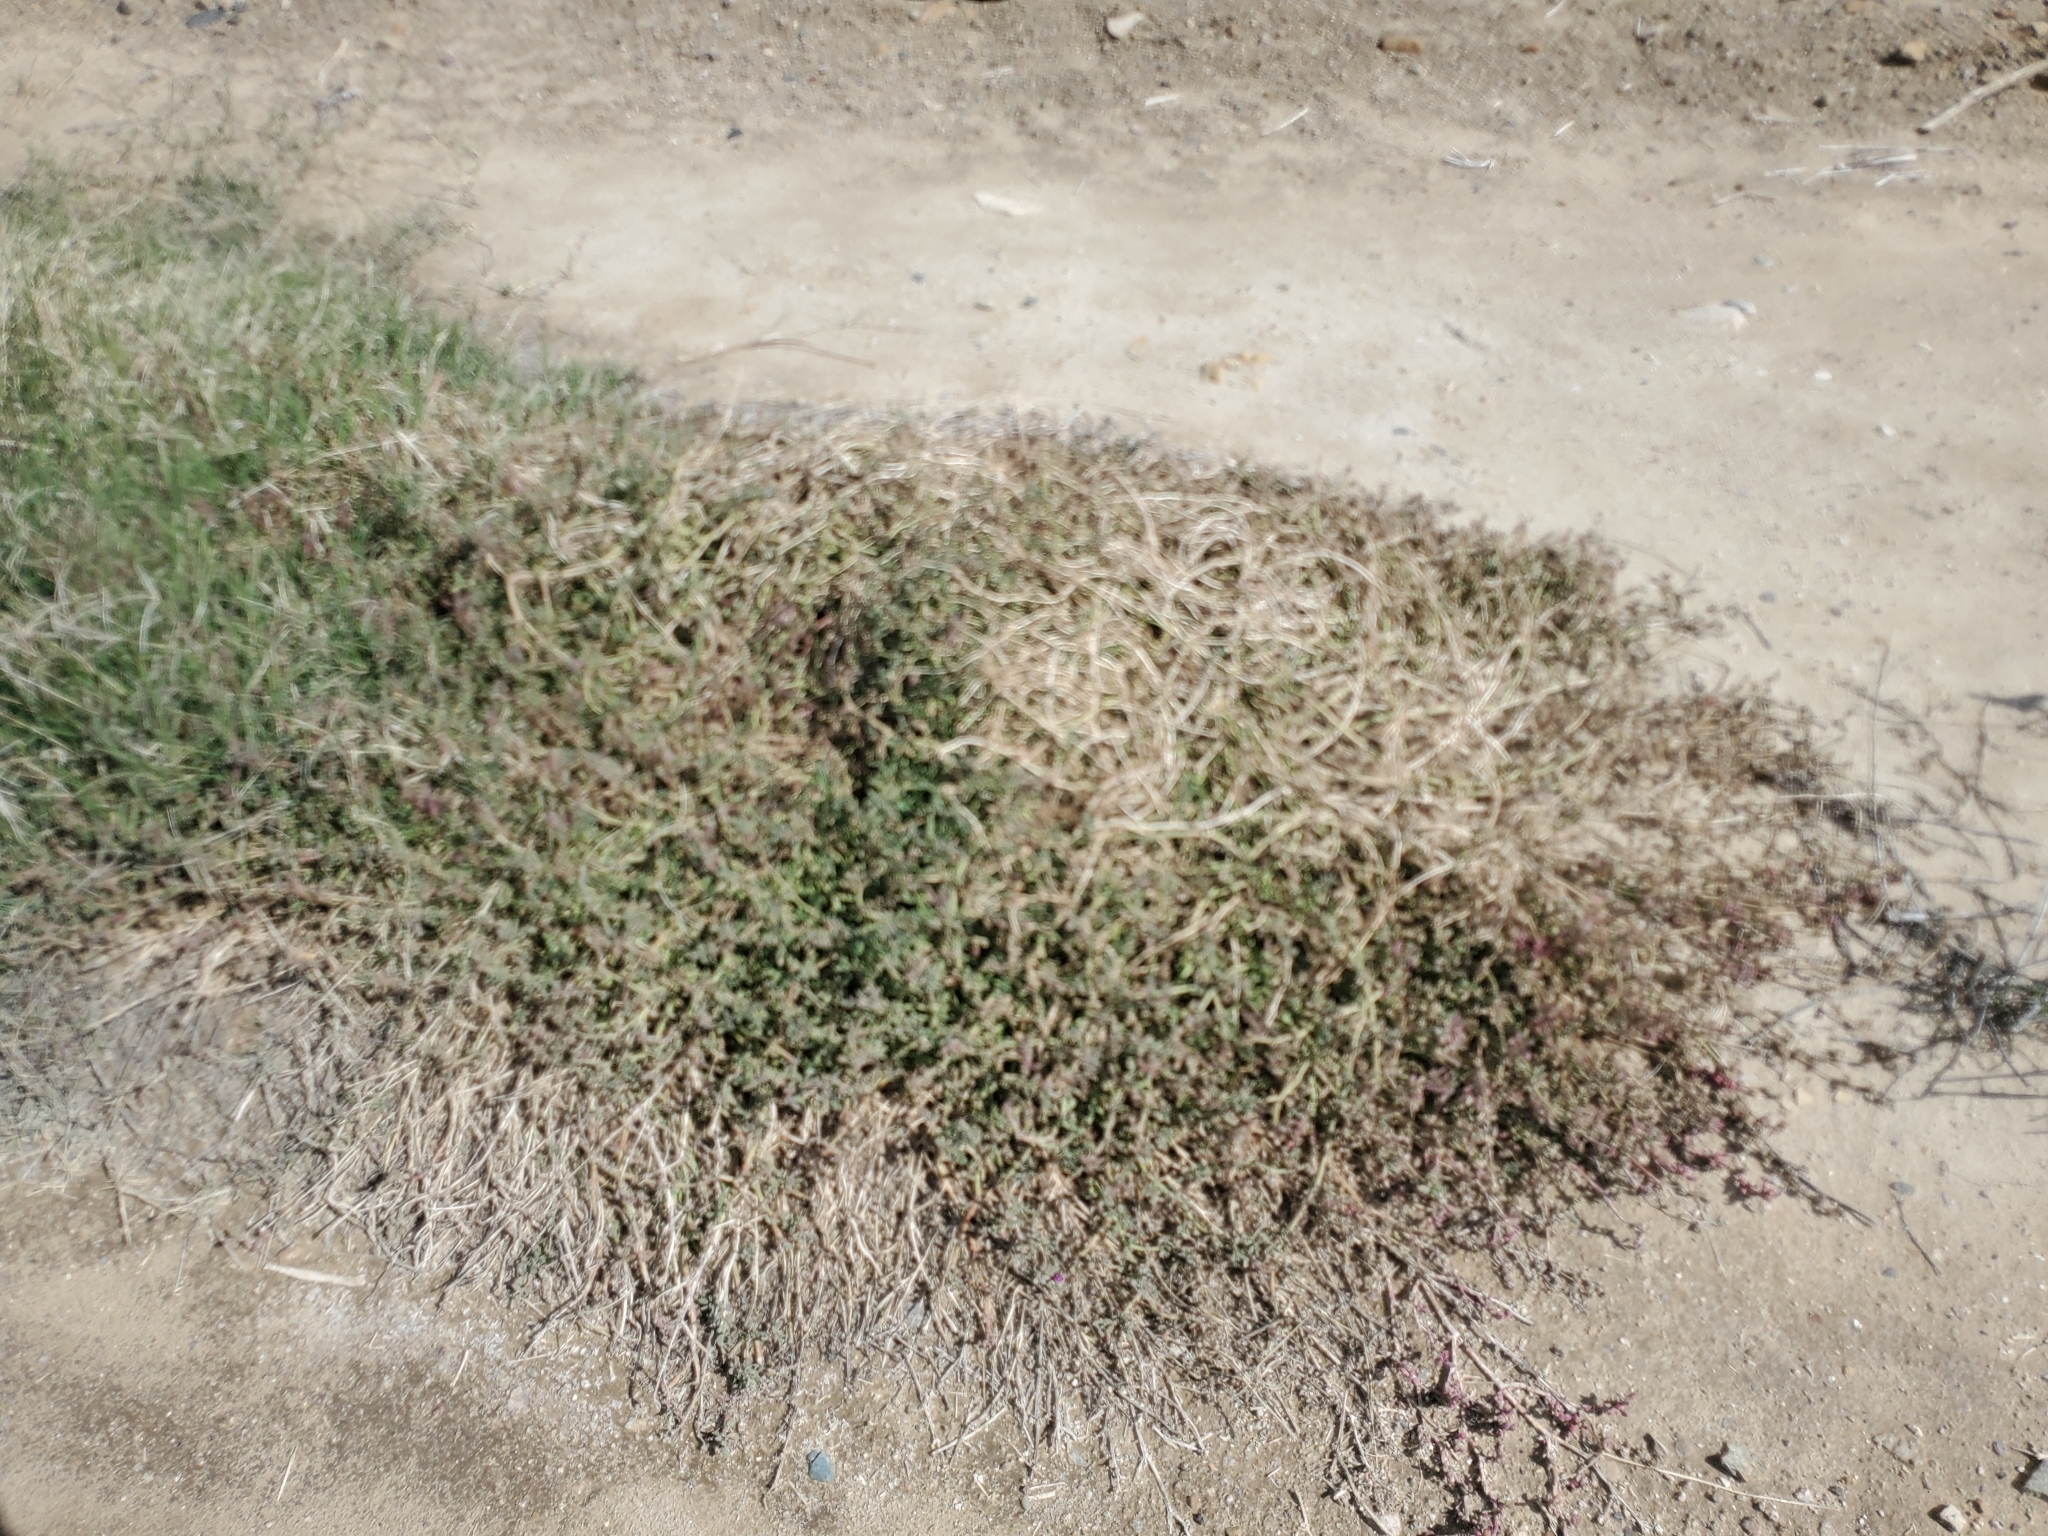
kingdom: Plantae
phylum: Tracheophyta
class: Magnoliopsida
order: Caryophyllales
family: Aizoaceae
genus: Sesuvium
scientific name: Sesuvium revolutifolium
